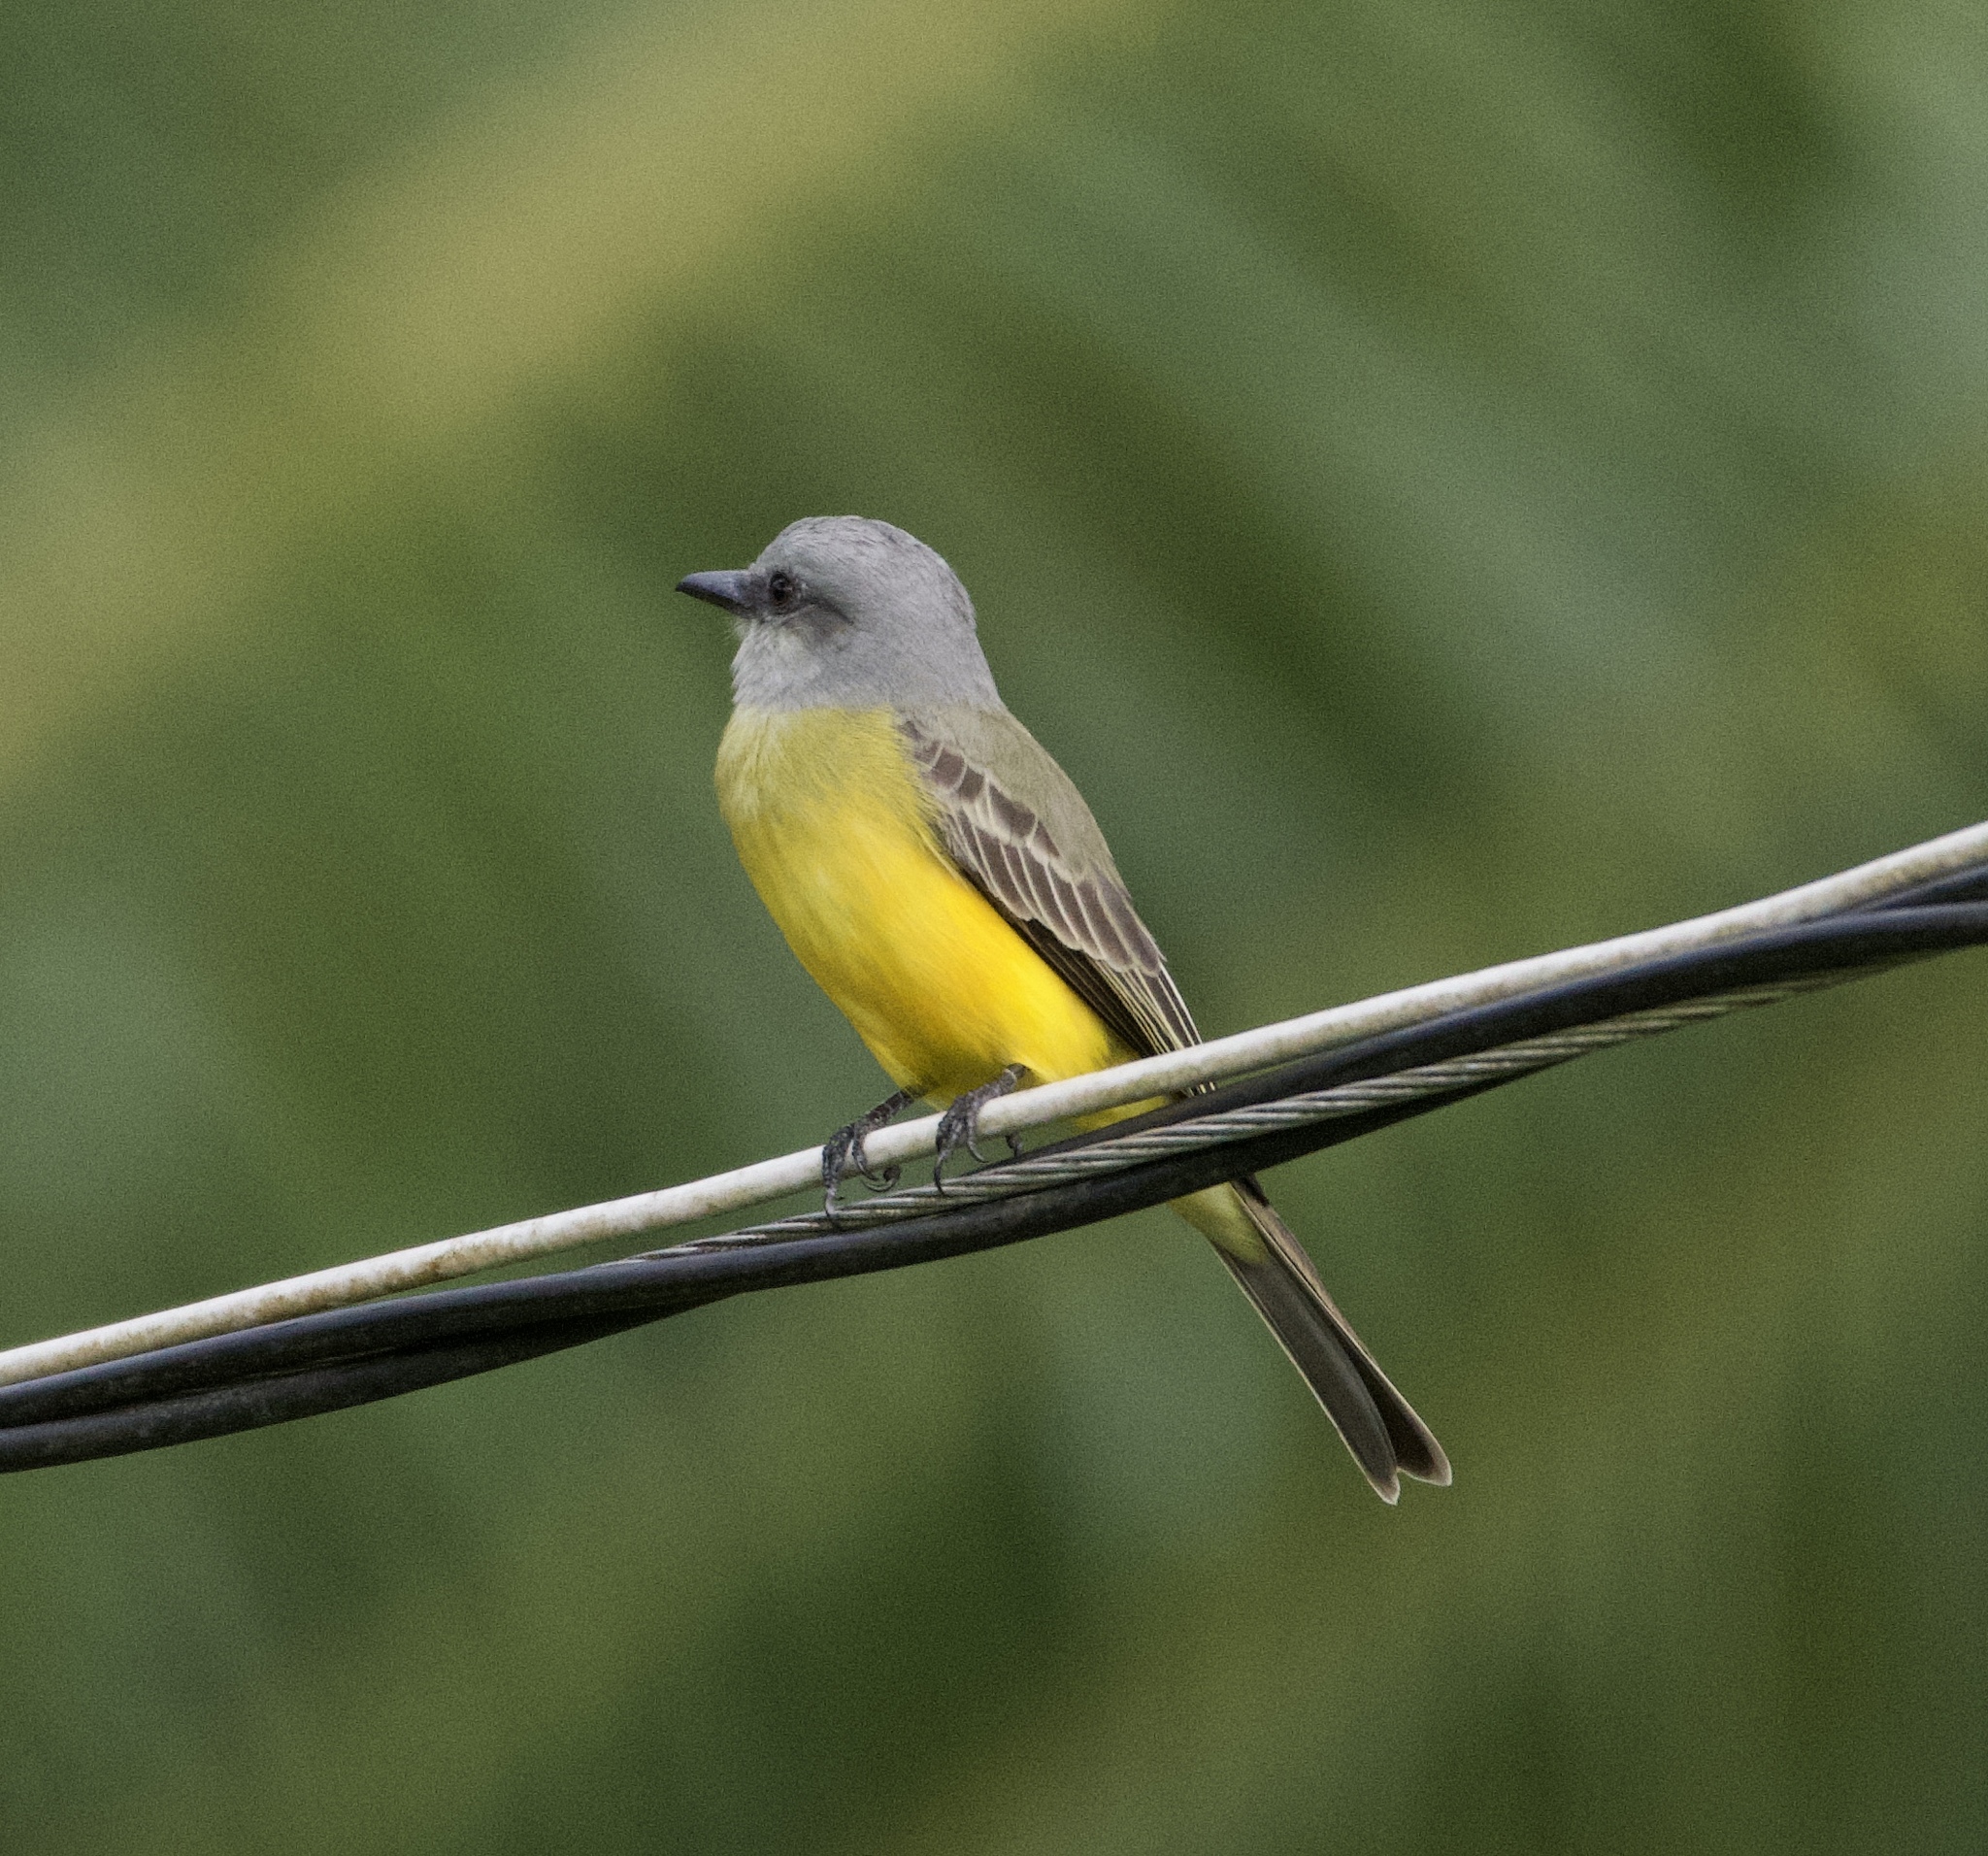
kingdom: Animalia
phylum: Chordata
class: Aves
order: Passeriformes
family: Tyrannidae
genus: Tyrannus
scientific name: Tyrannus melancholicus
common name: Tropical kingbird
